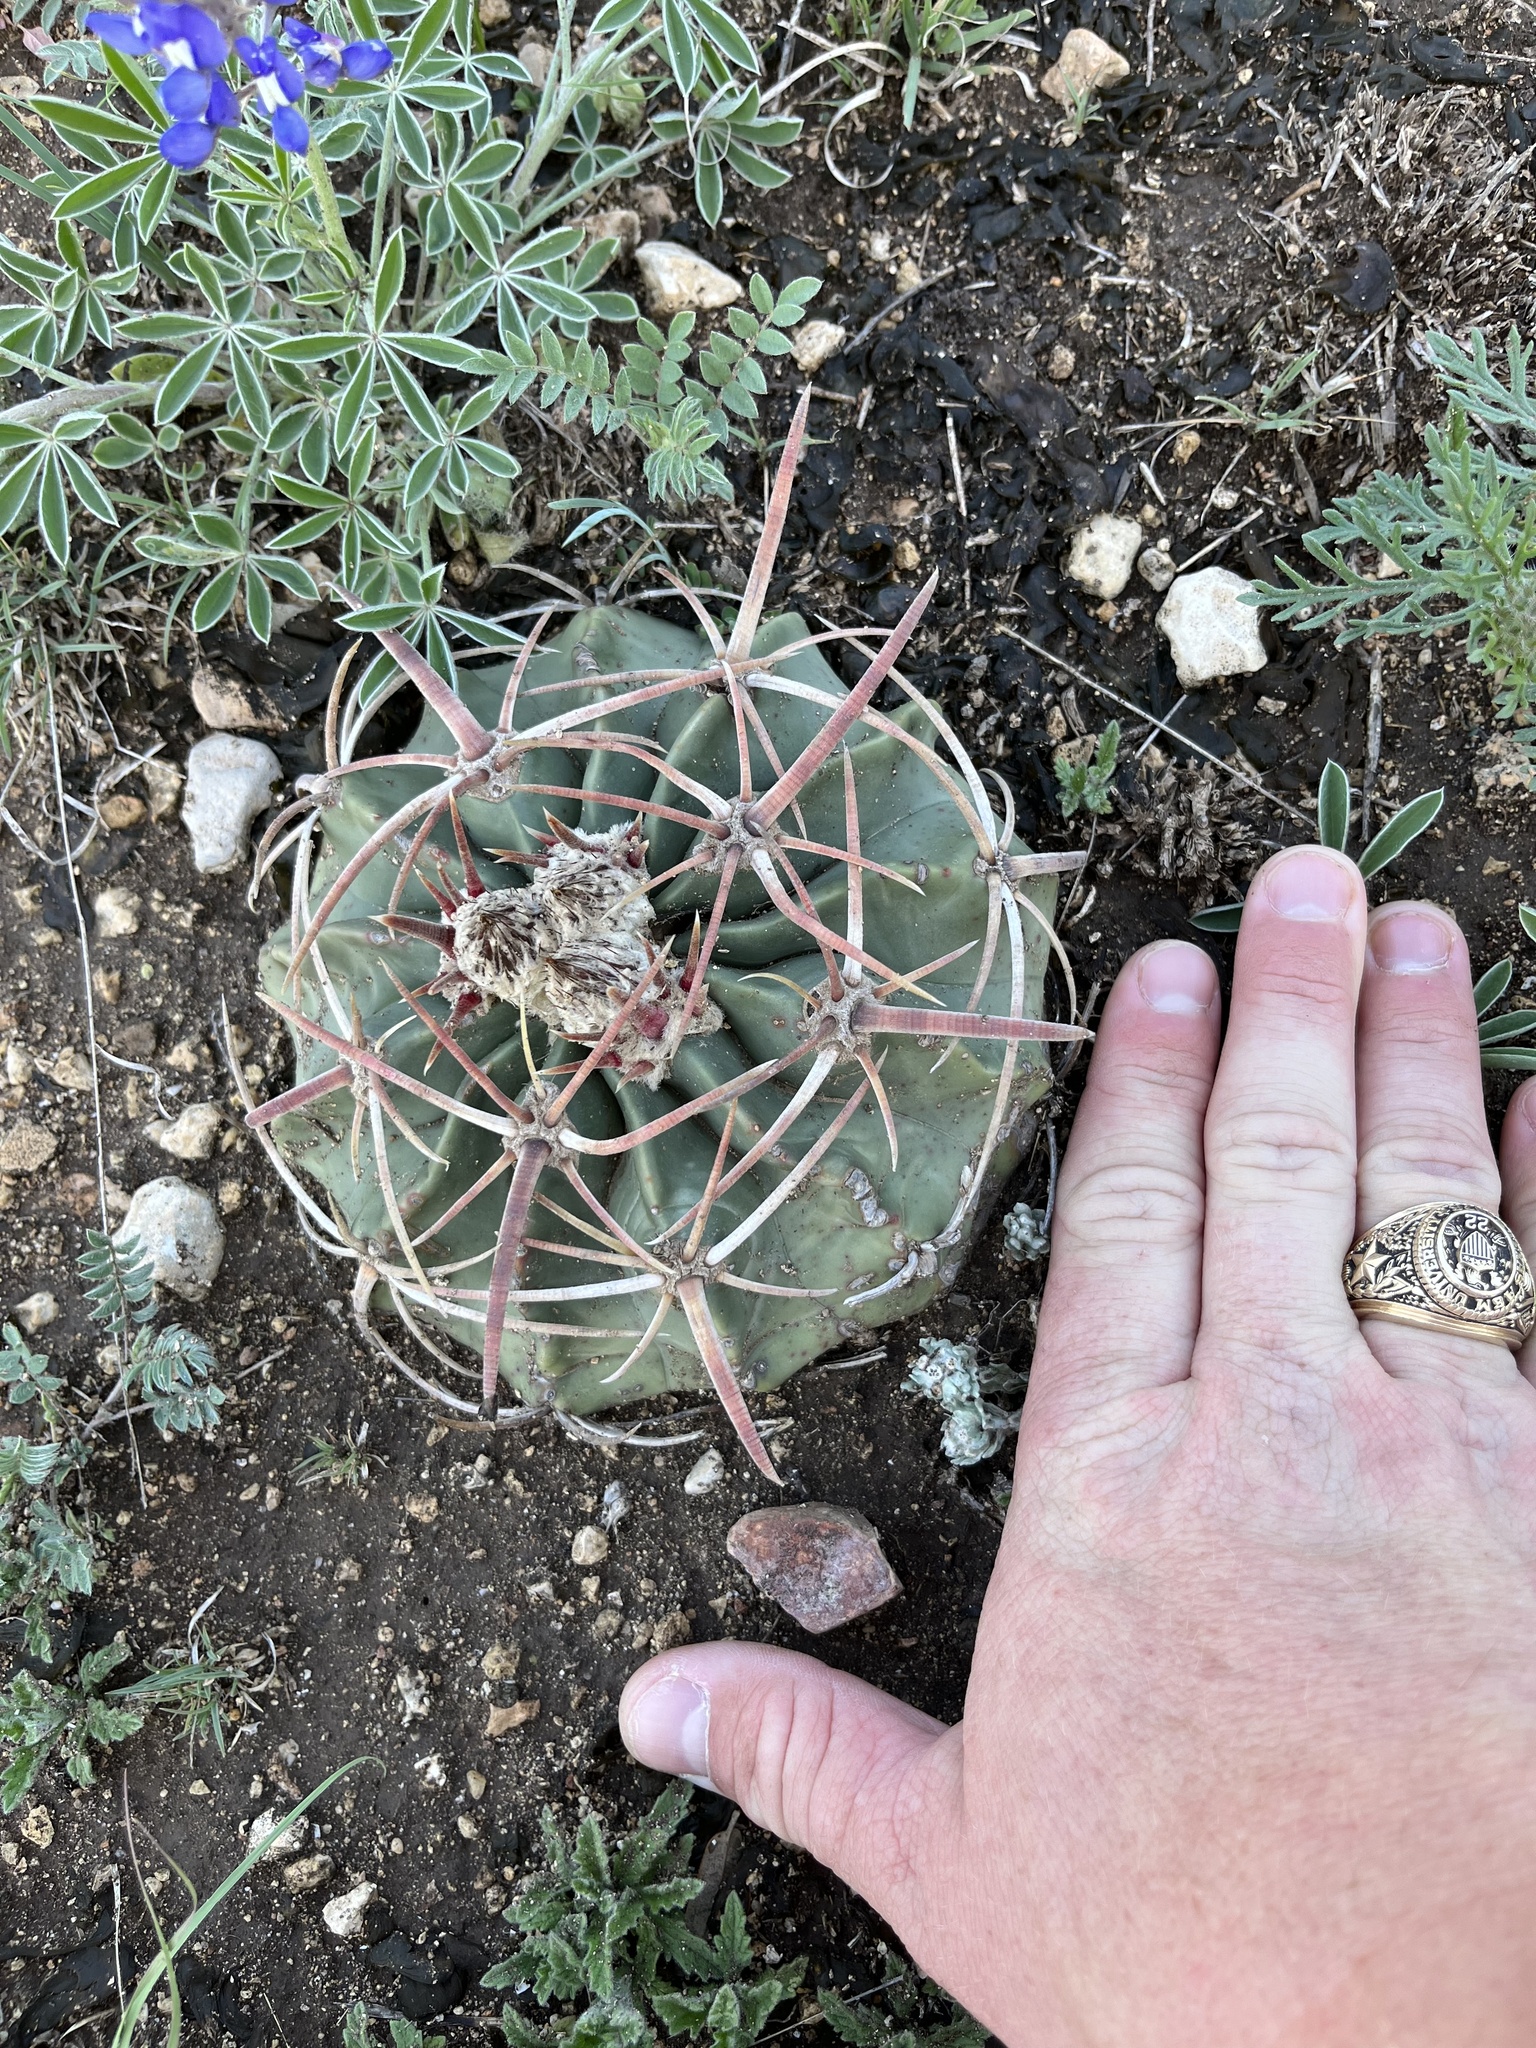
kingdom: Plantae
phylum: Tracheophyta
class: Magnoliopsida
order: Caryophyllales
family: Cactaceae
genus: Echinocactus
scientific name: Echinocactus texensis
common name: Devil's pincushion
